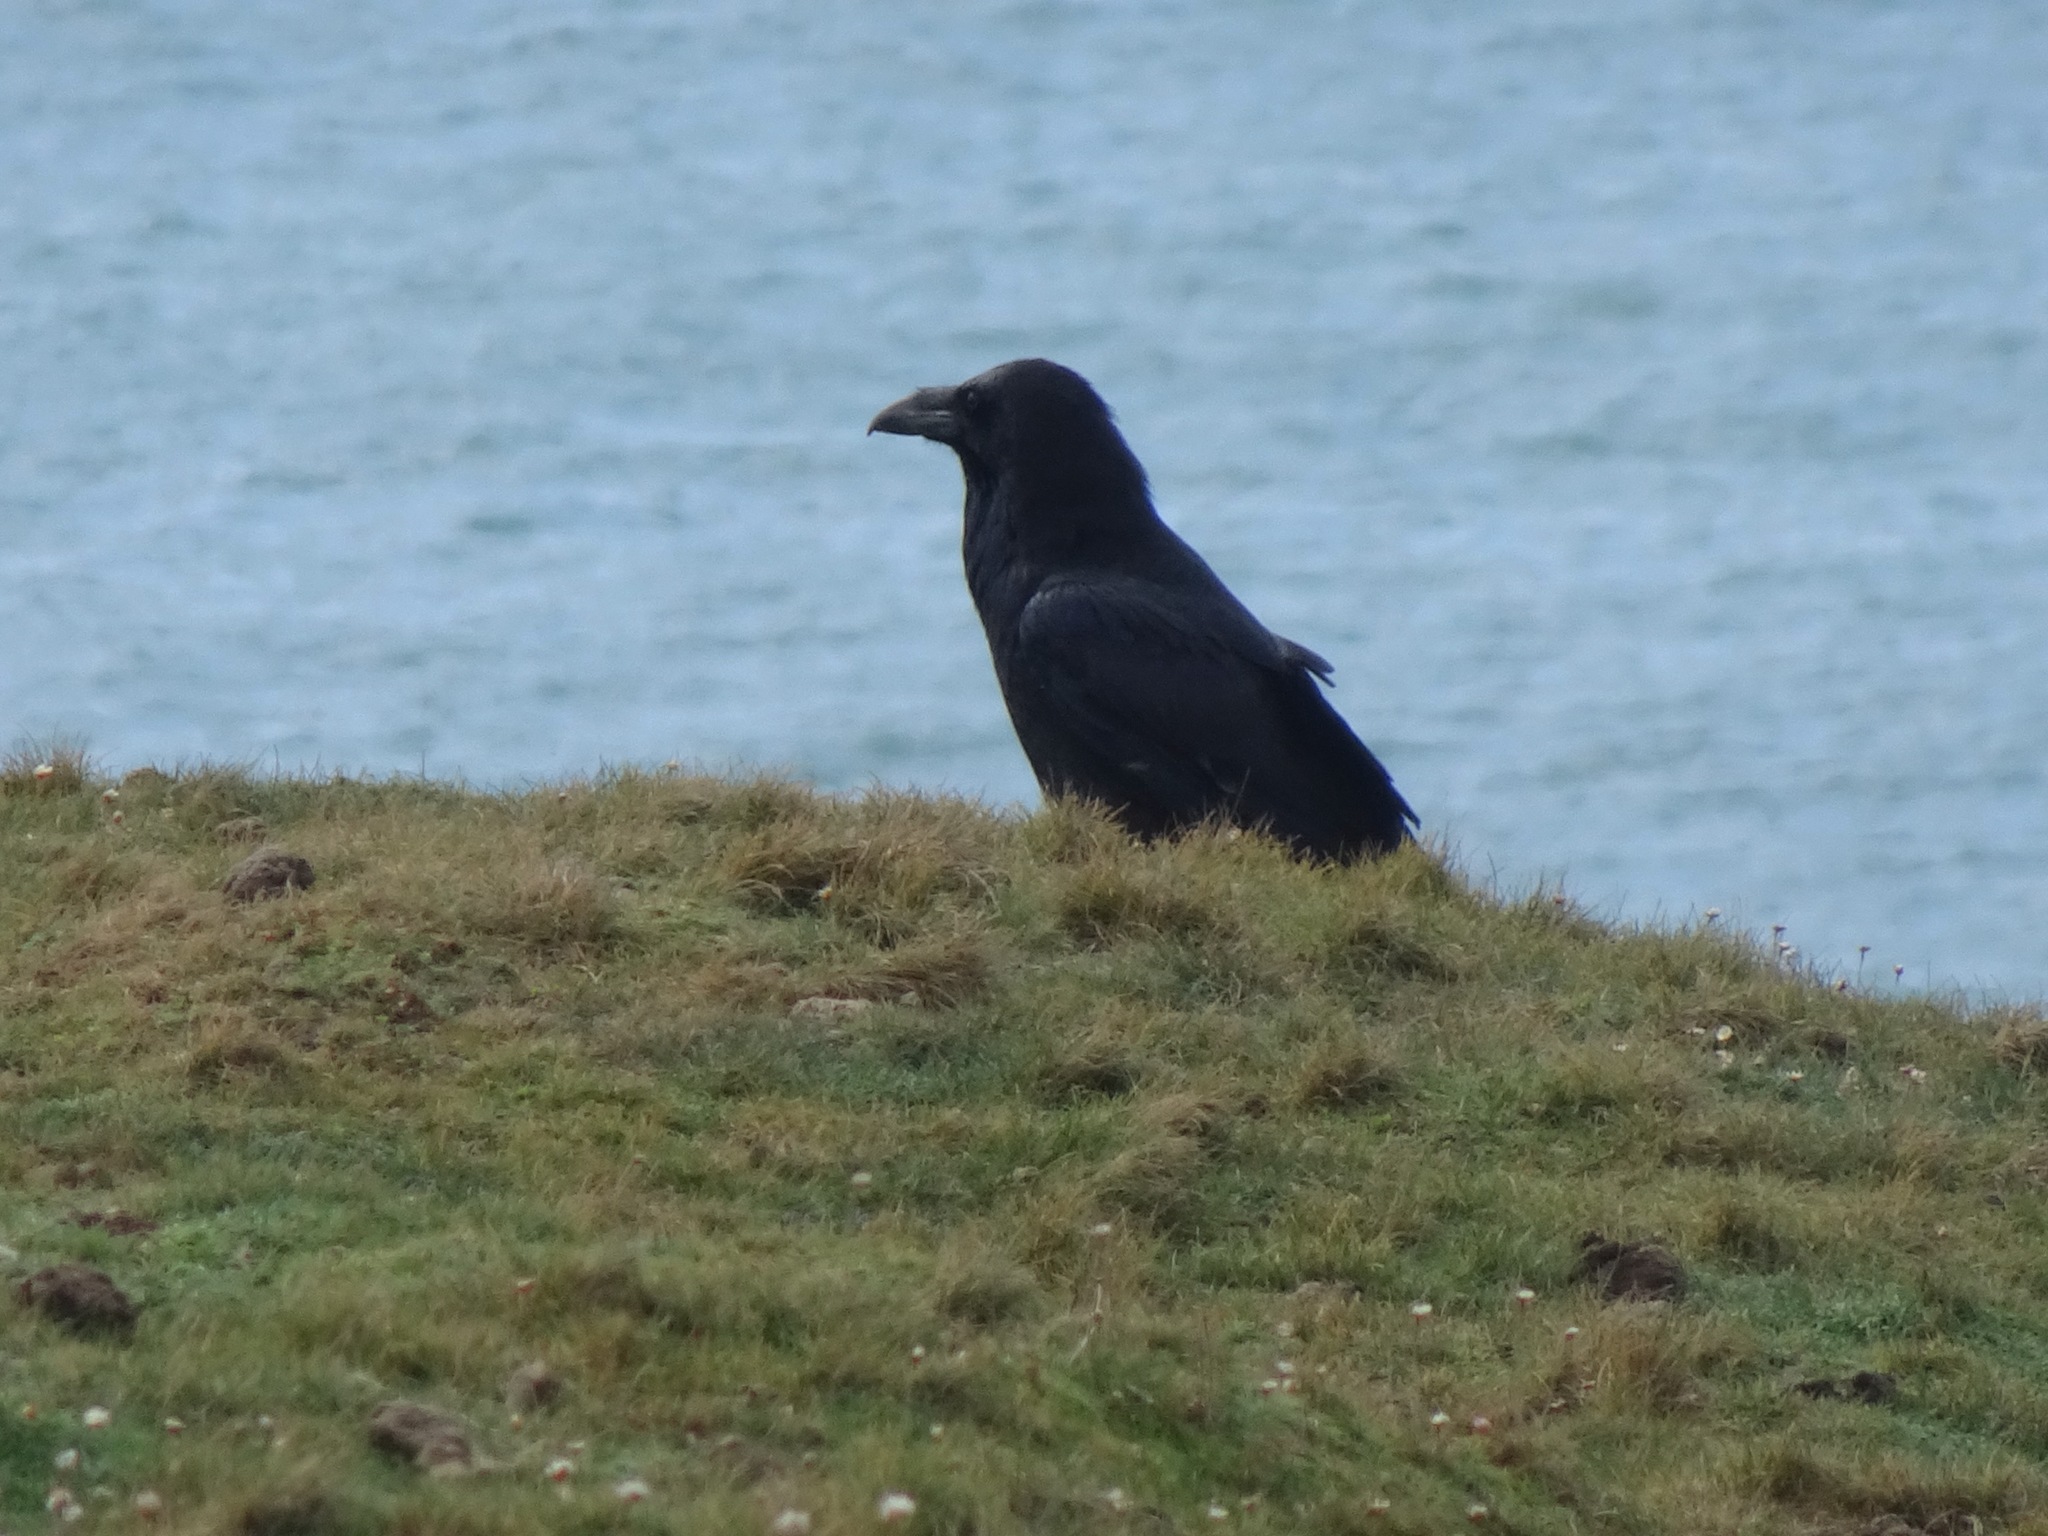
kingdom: Animalia
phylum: Chordata
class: Aves
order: Passeriformes
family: Corvidae
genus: Corvus
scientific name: Corvus corax
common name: Common raven
